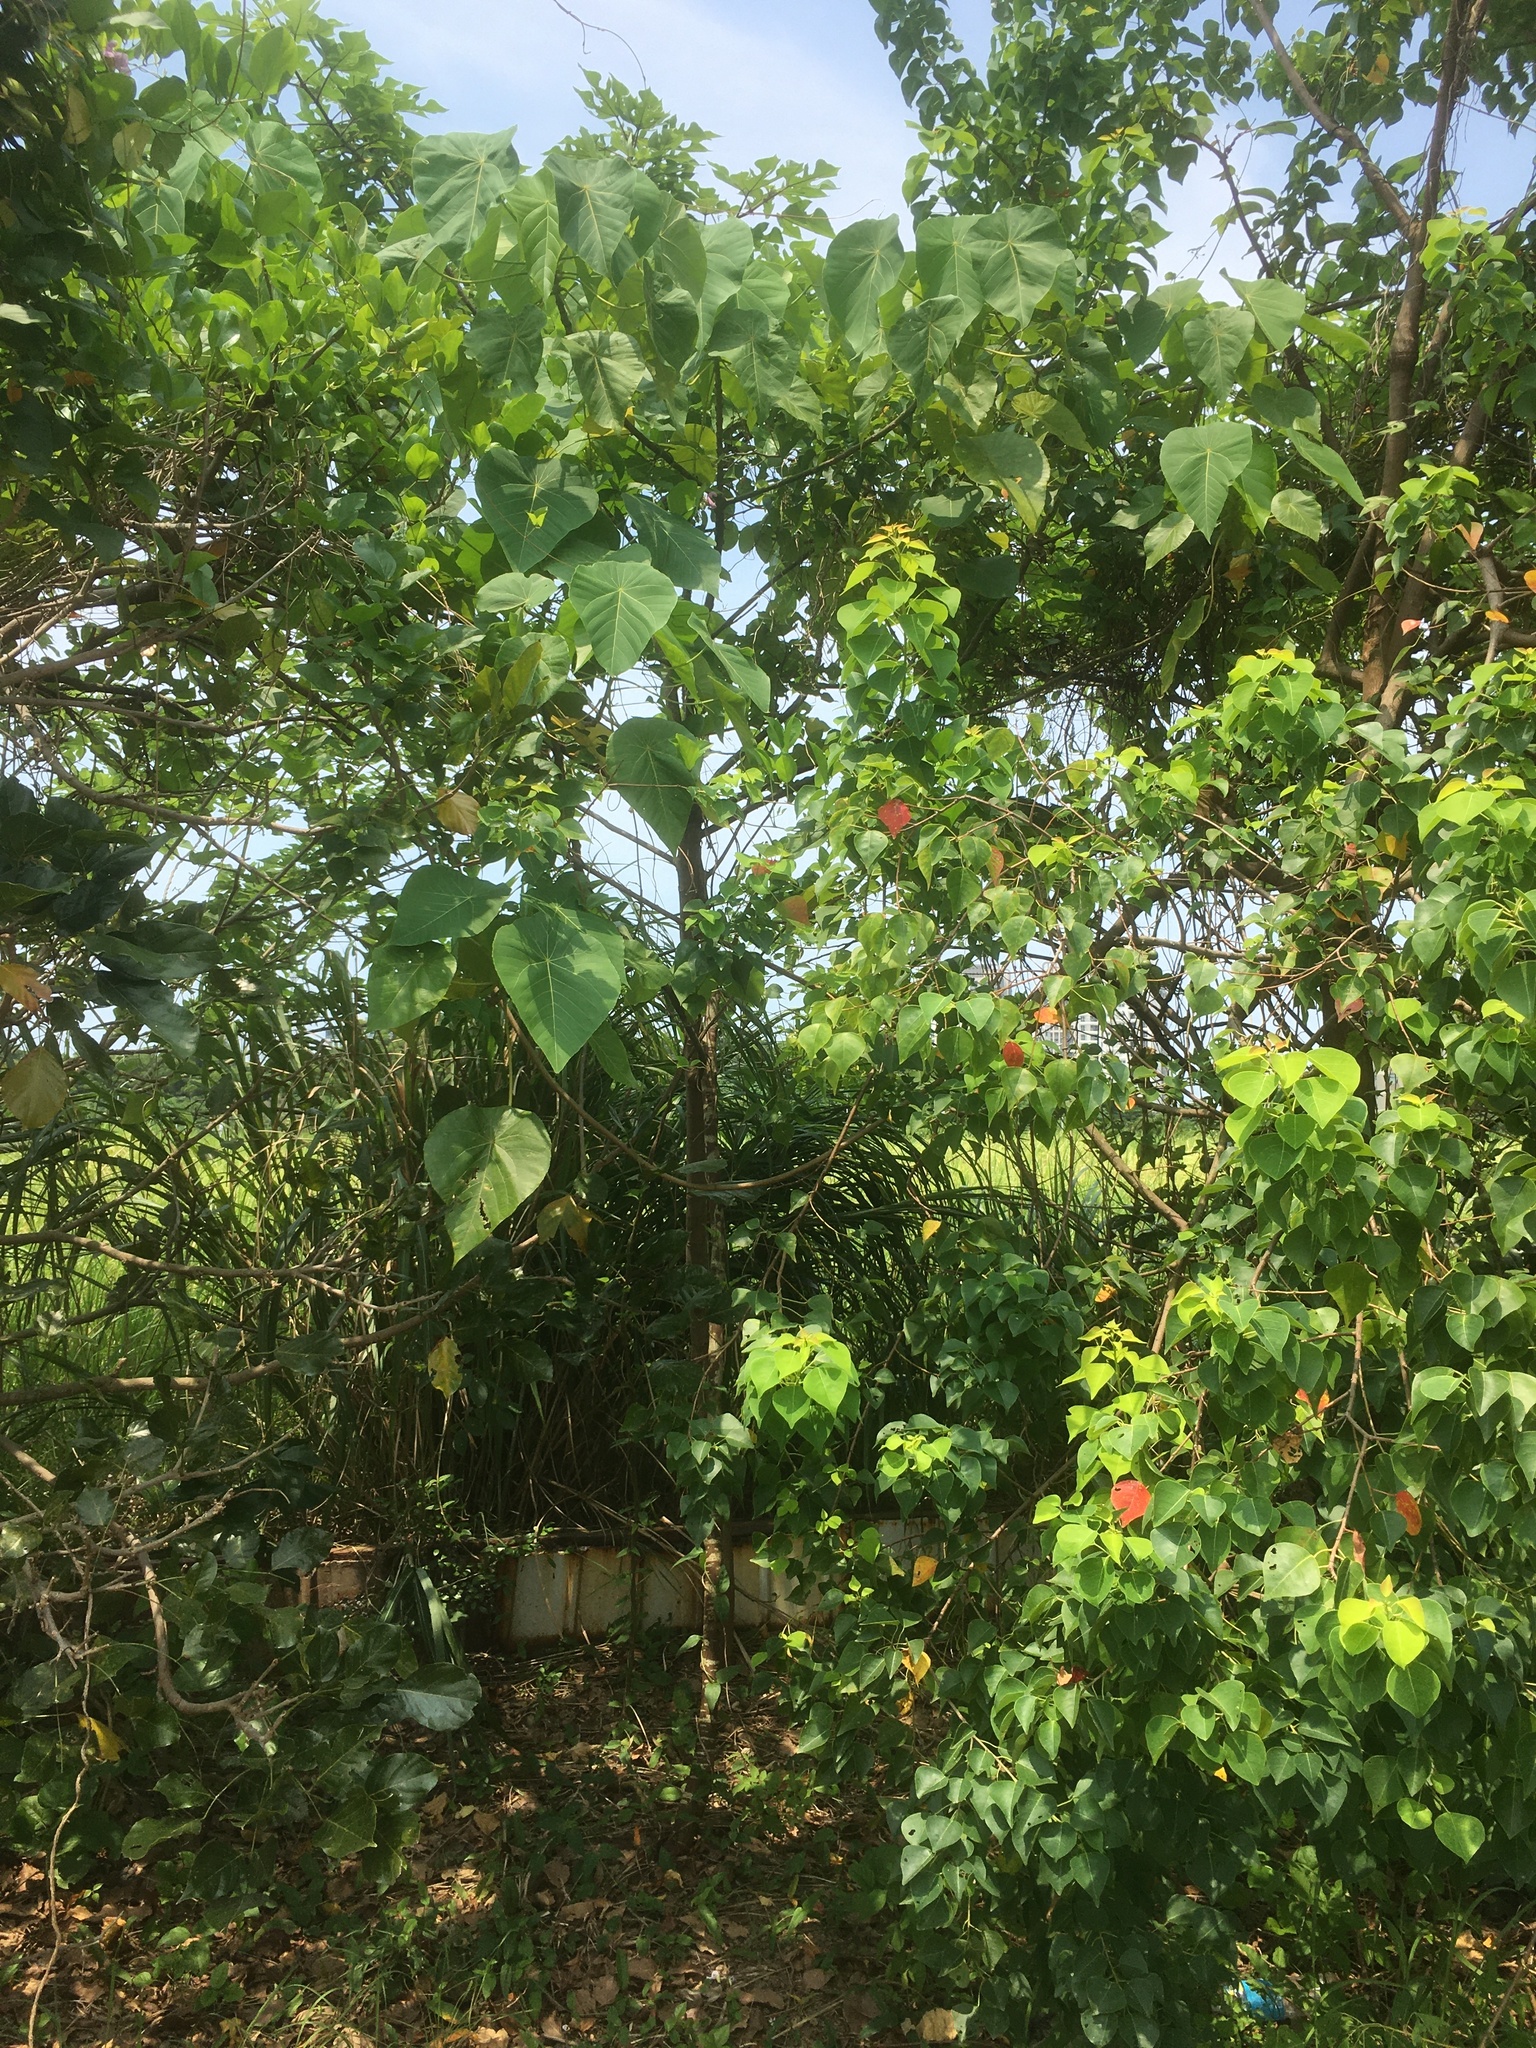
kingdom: Plantae
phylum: Tracheophyta
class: Magnoliopsida
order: Malpighiales
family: Euphorbiaceae
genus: Macaranga
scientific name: Macaranga tanarius
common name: Parasol leaf tree
